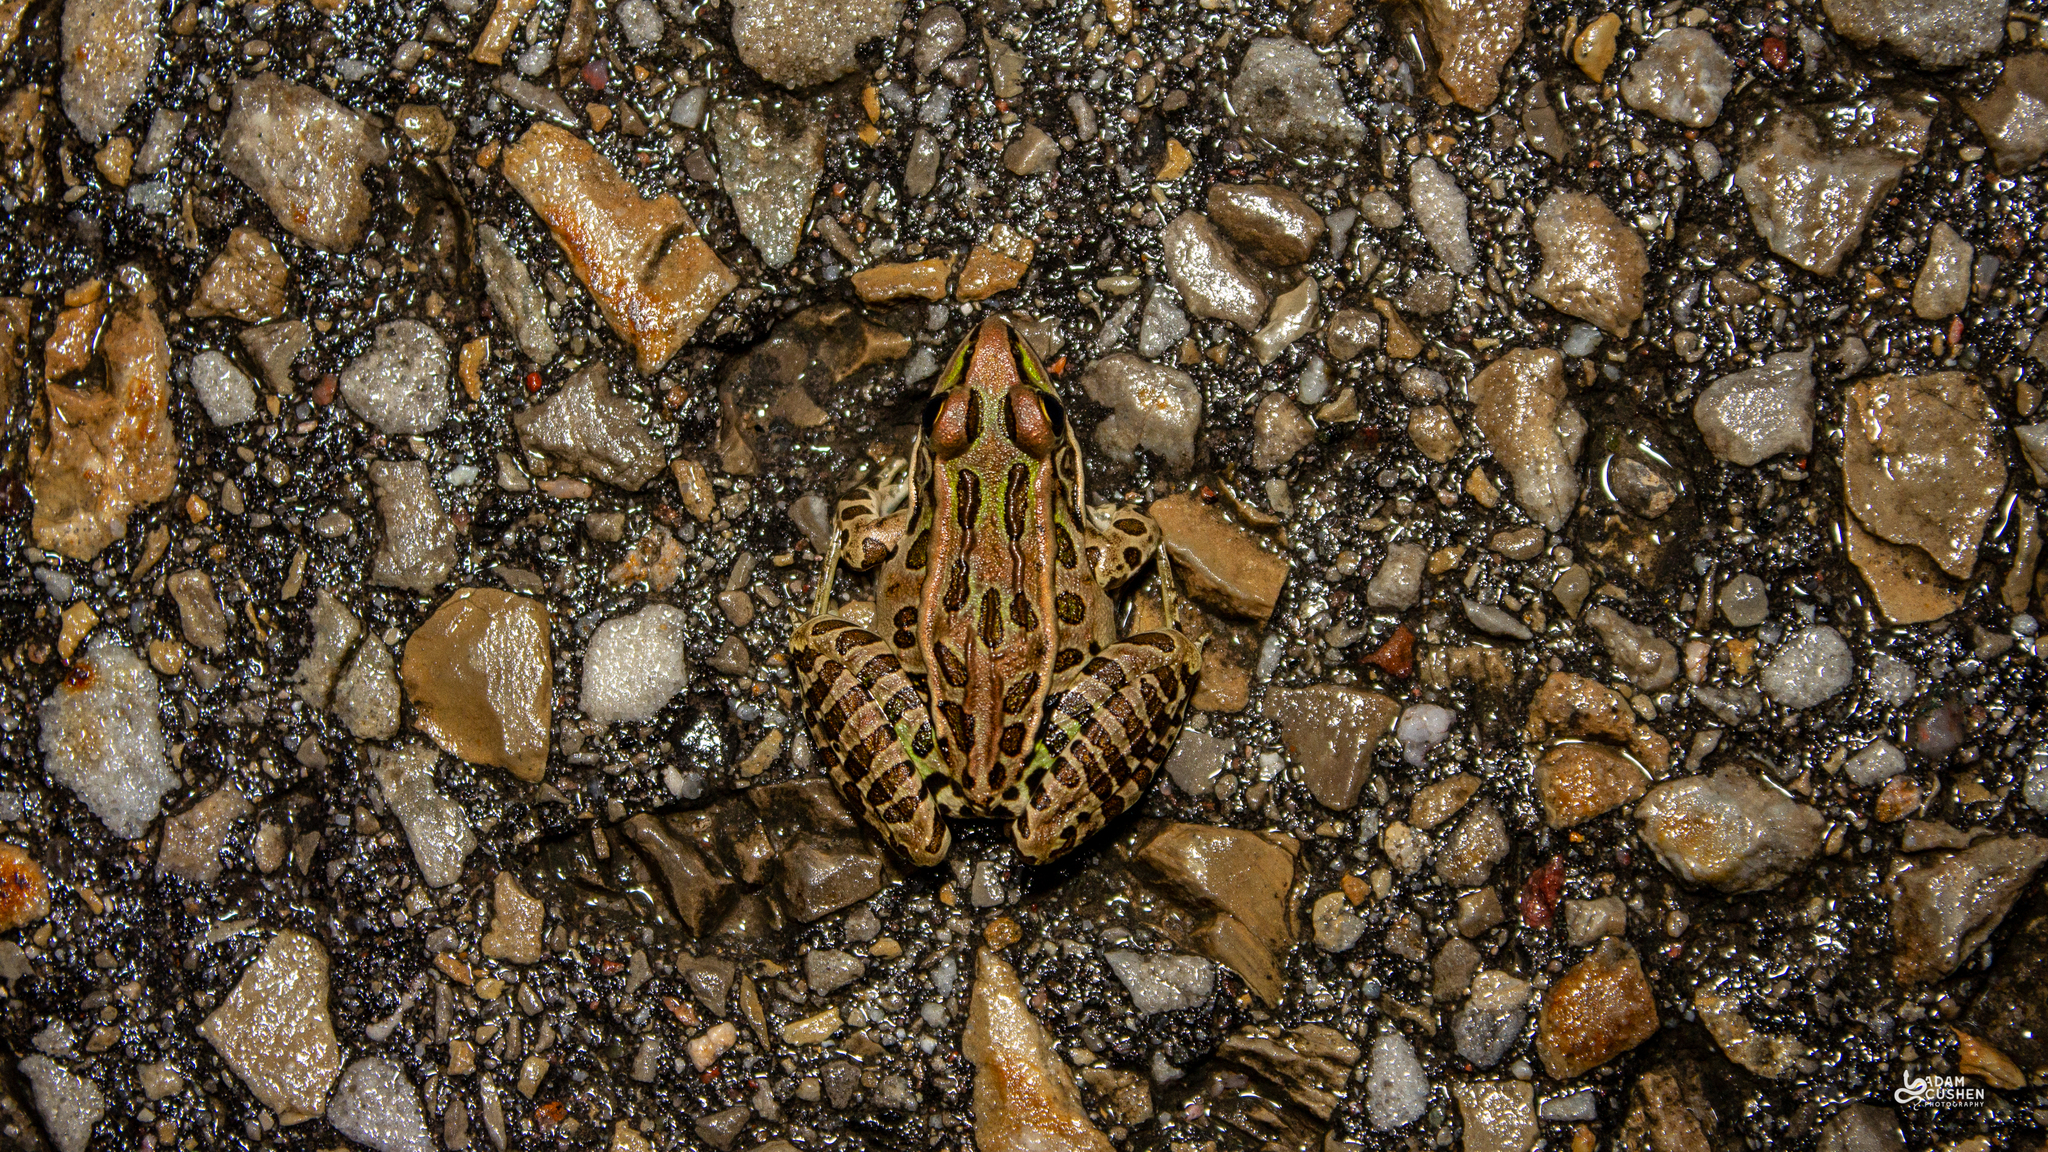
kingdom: Animalia
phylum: Chordata
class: Amphibia
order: Anura
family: Ranidae
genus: Lithobates
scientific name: Lithobates pipiens
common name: Northern leopard frog
